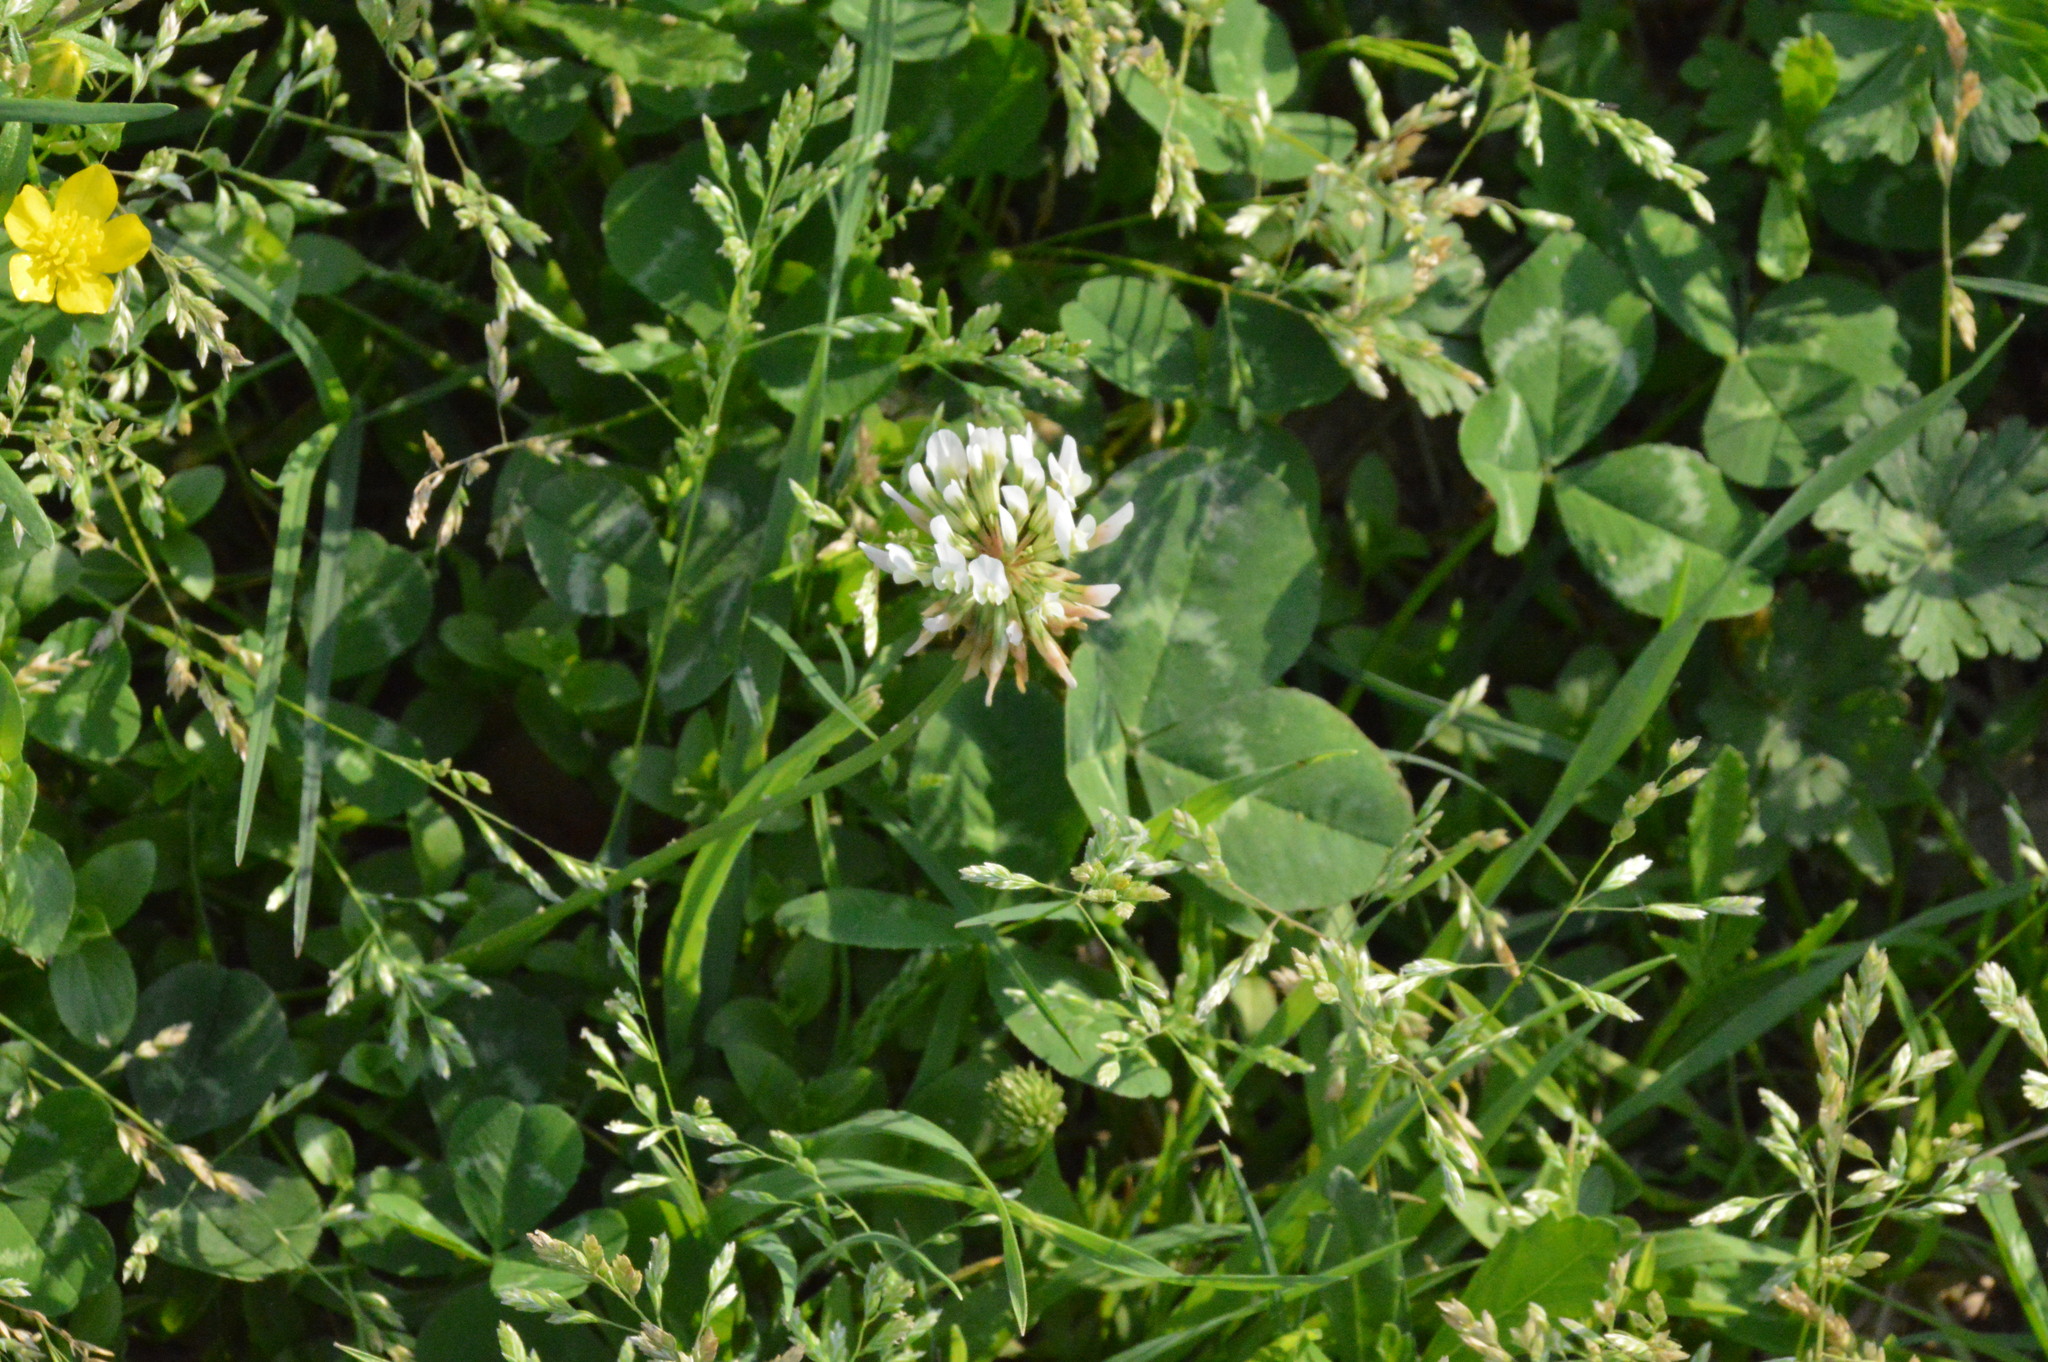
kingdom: Plantae
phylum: Tracheophyta
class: Magnoliopsida
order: Fabales
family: Fabaceae
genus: Trifolium
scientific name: Trifolium repens
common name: White clover
